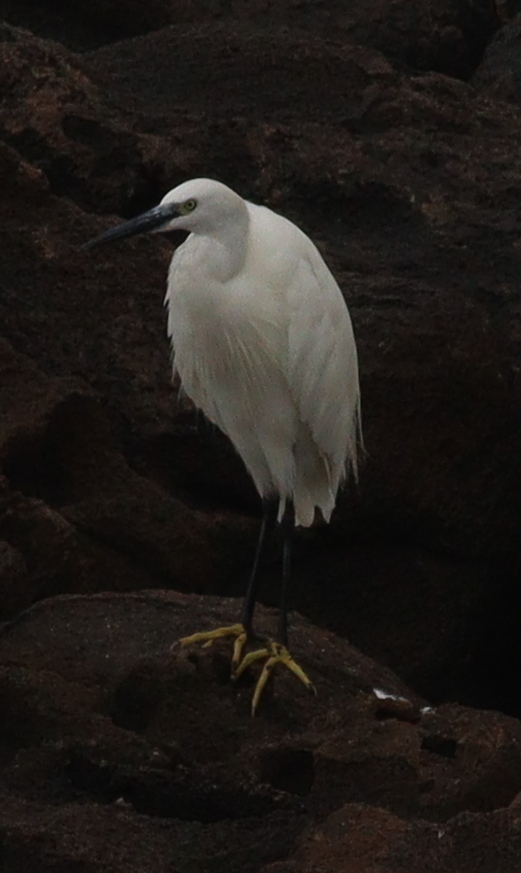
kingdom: Animalia
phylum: Chordata
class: Aves
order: Pelecaniformes
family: Ardeidae
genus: Egretta
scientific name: Egretta garzetta
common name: Little egret
